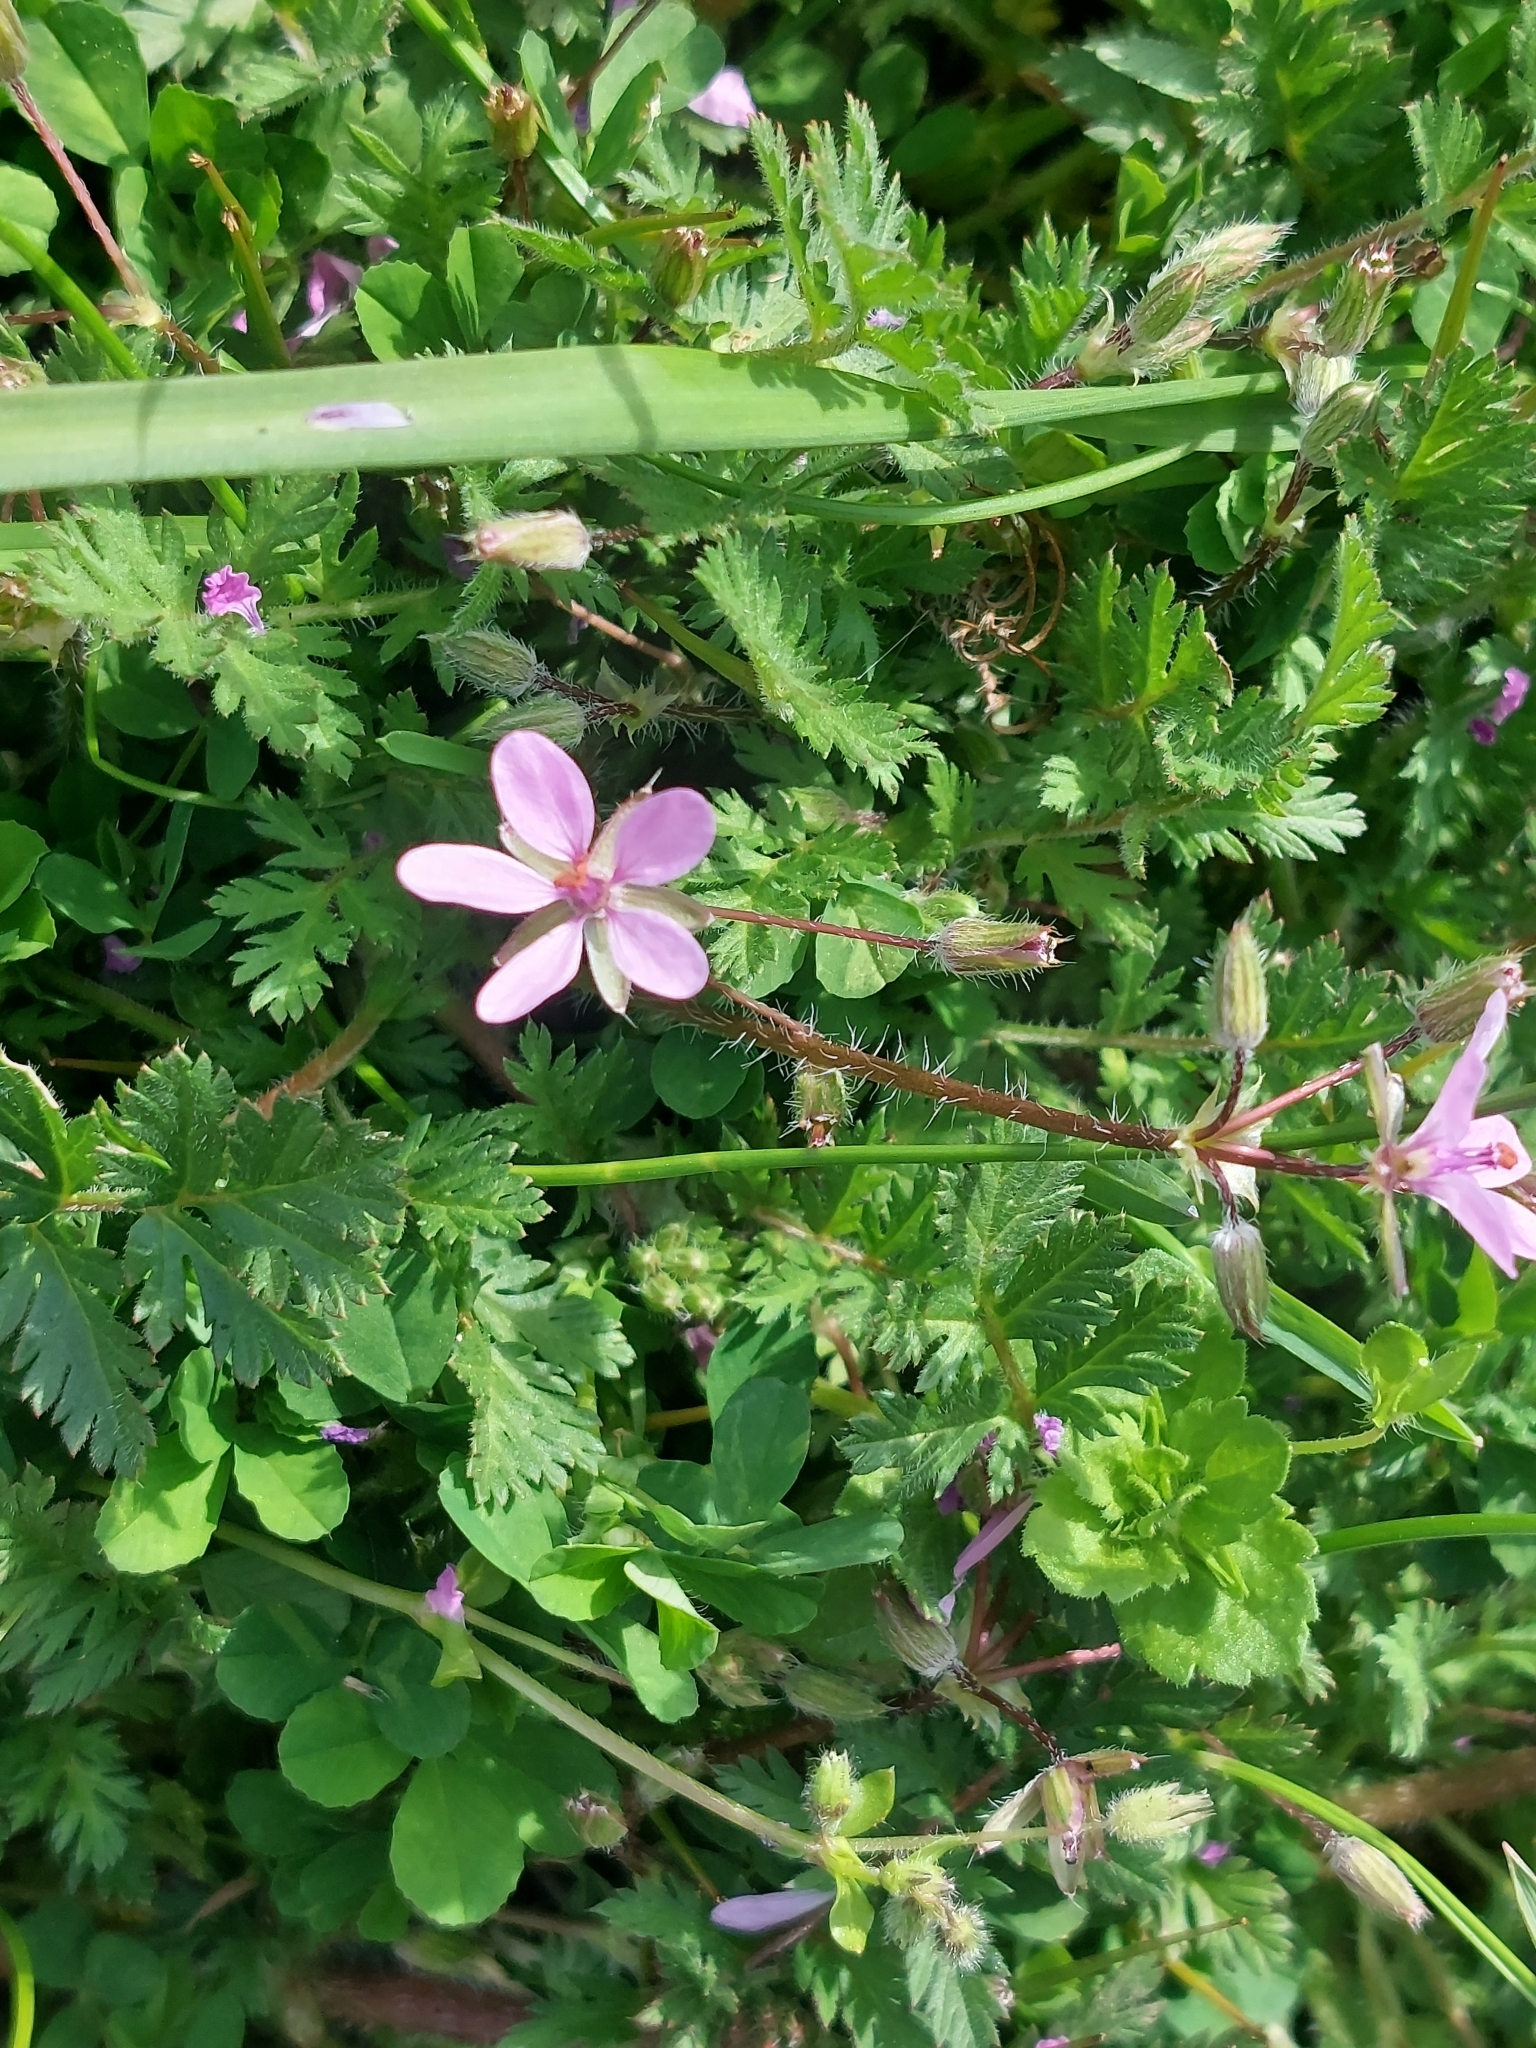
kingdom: Plantae
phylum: Tracheophyta
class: Magnoliopsida
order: Geraniales
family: Geraniaceae
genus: Erodium
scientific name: Erodium cicutarium
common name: Common stork's-bill
